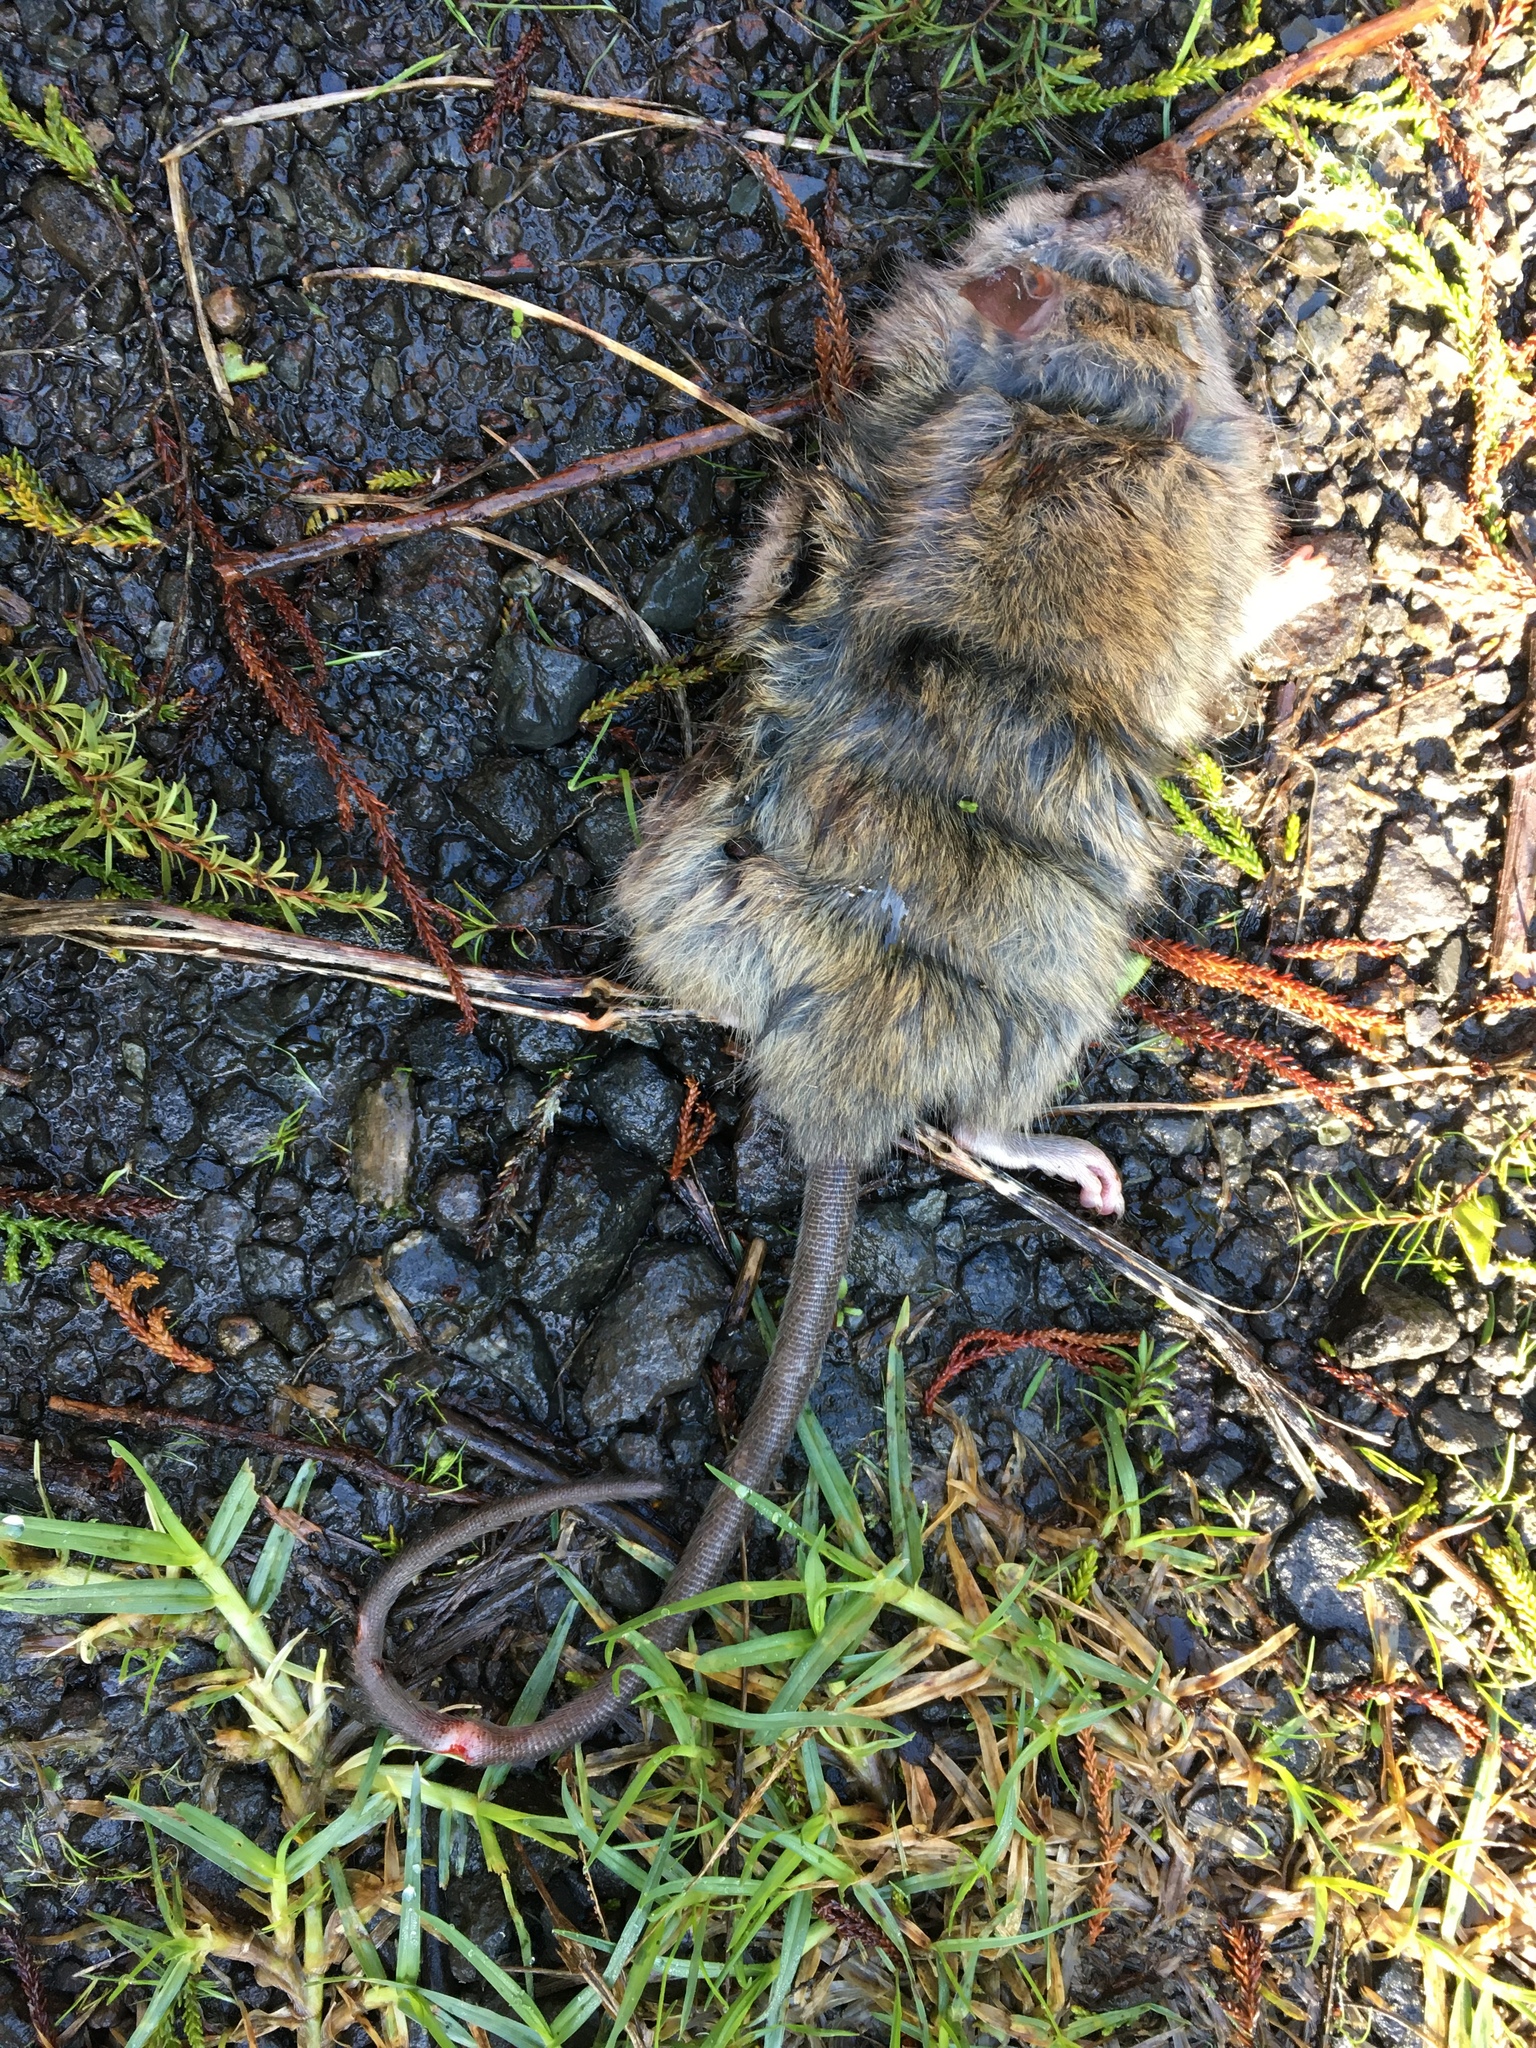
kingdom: Animalia
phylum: Chordata
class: Mammalia
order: Rodentia
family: Muridae
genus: Rattus
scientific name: Rattus rattus
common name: Black rat
